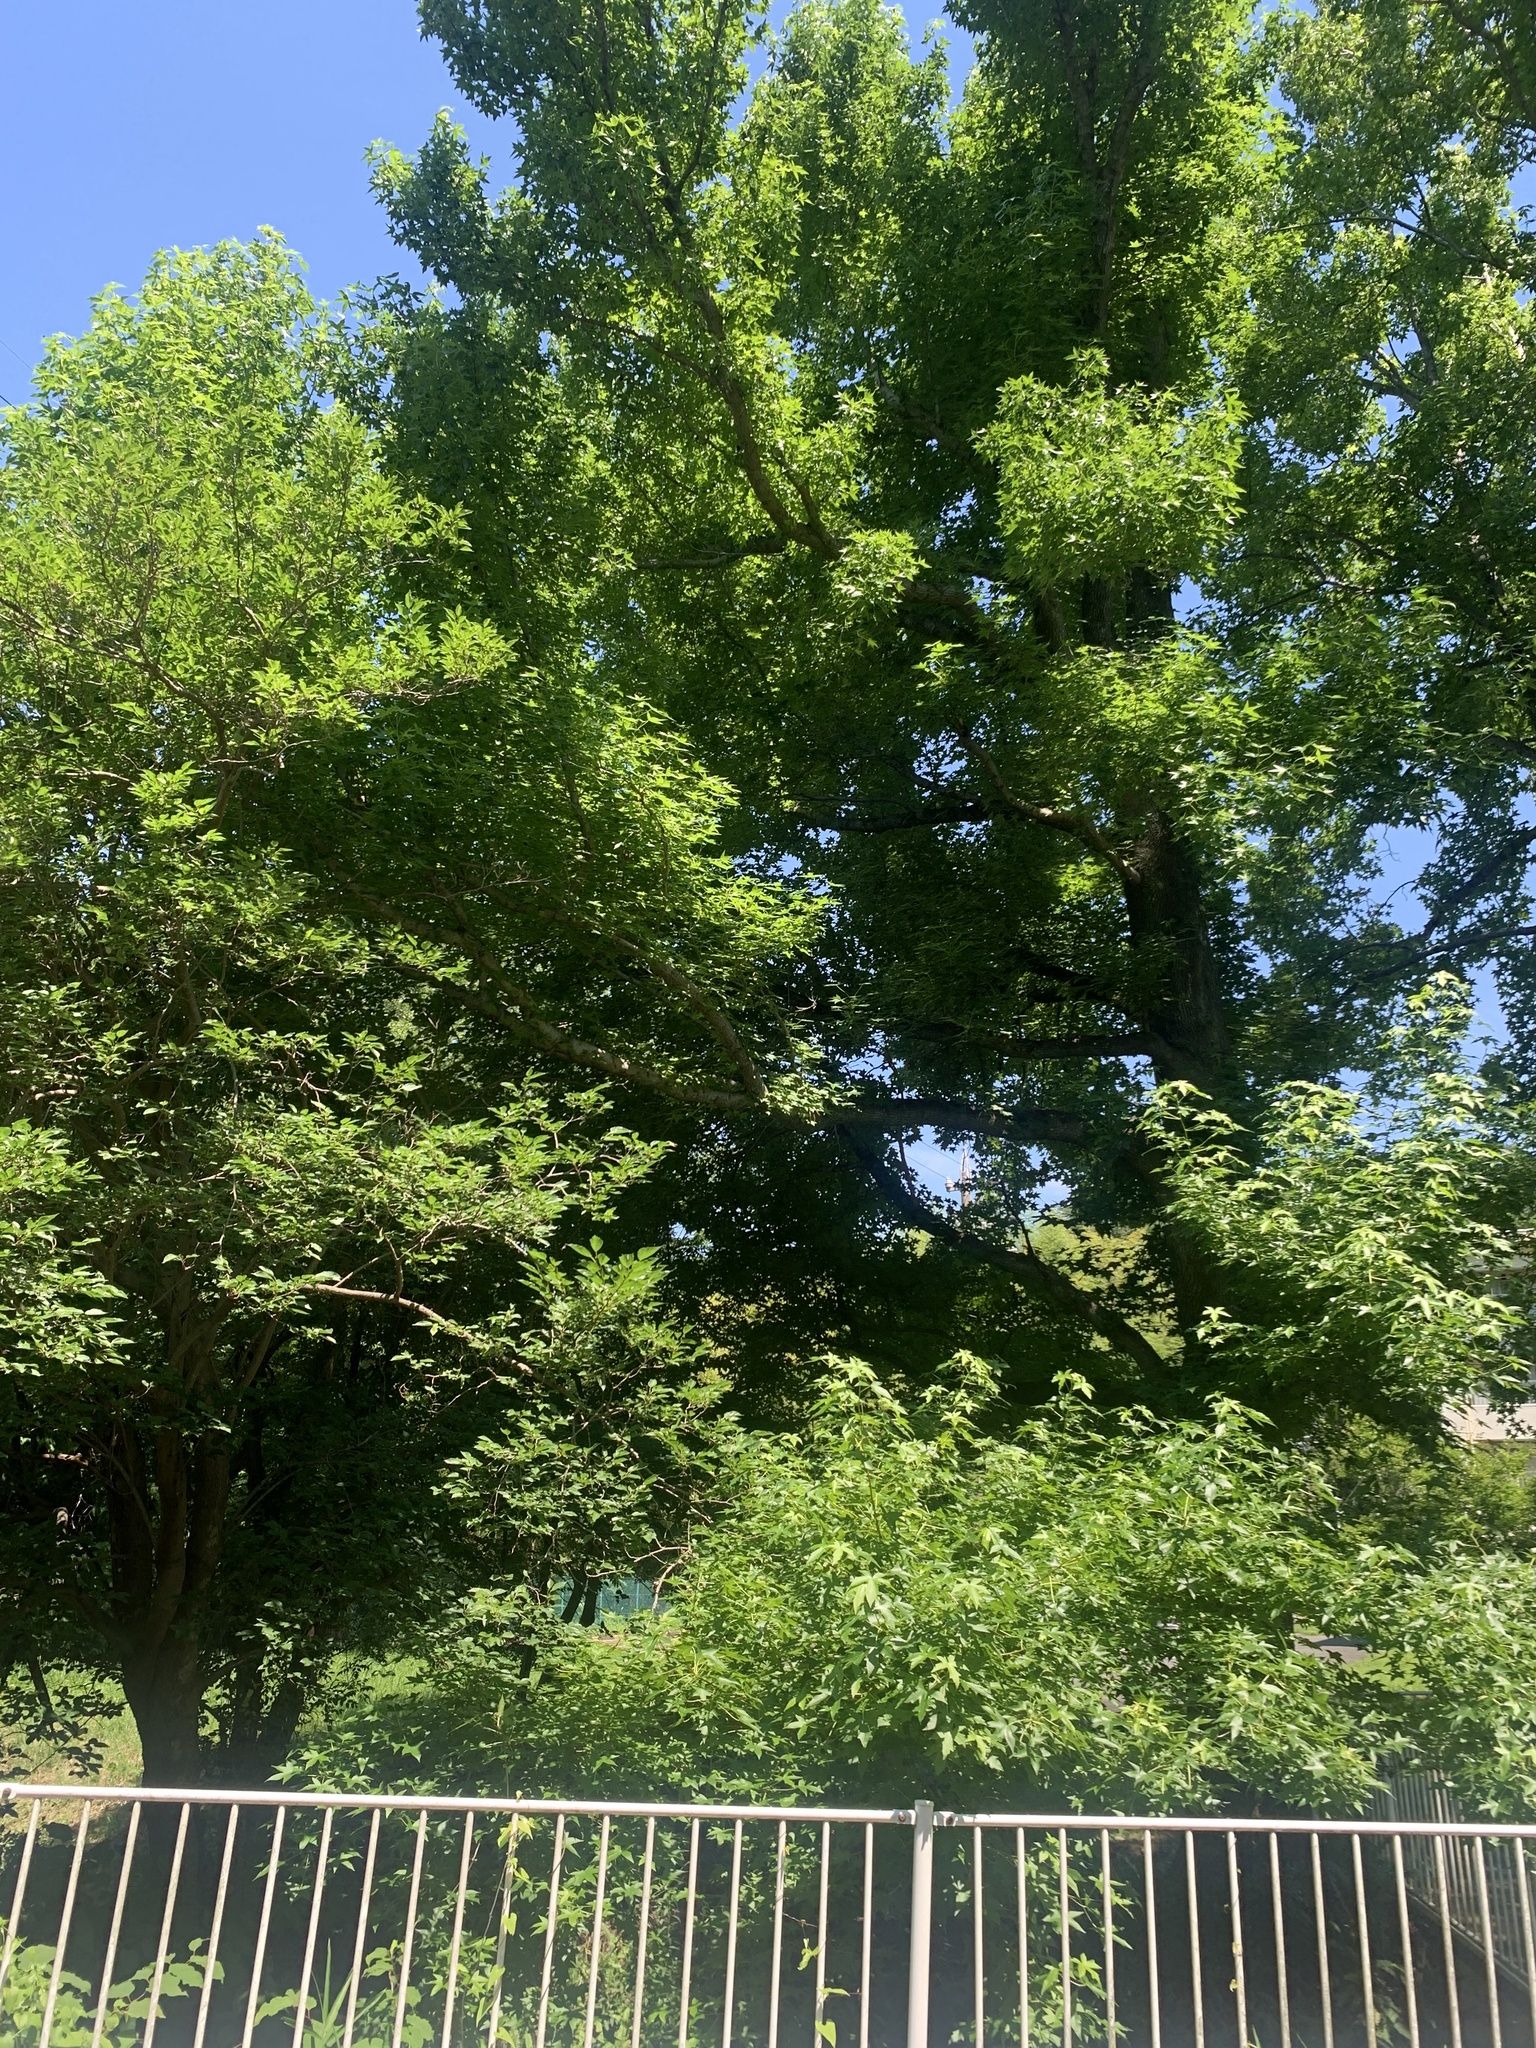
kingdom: Animalia
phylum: Arthropoda
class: Insecta
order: Hemiptera
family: Cicadidae
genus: Platypleura
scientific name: Platypleura kaempferi
